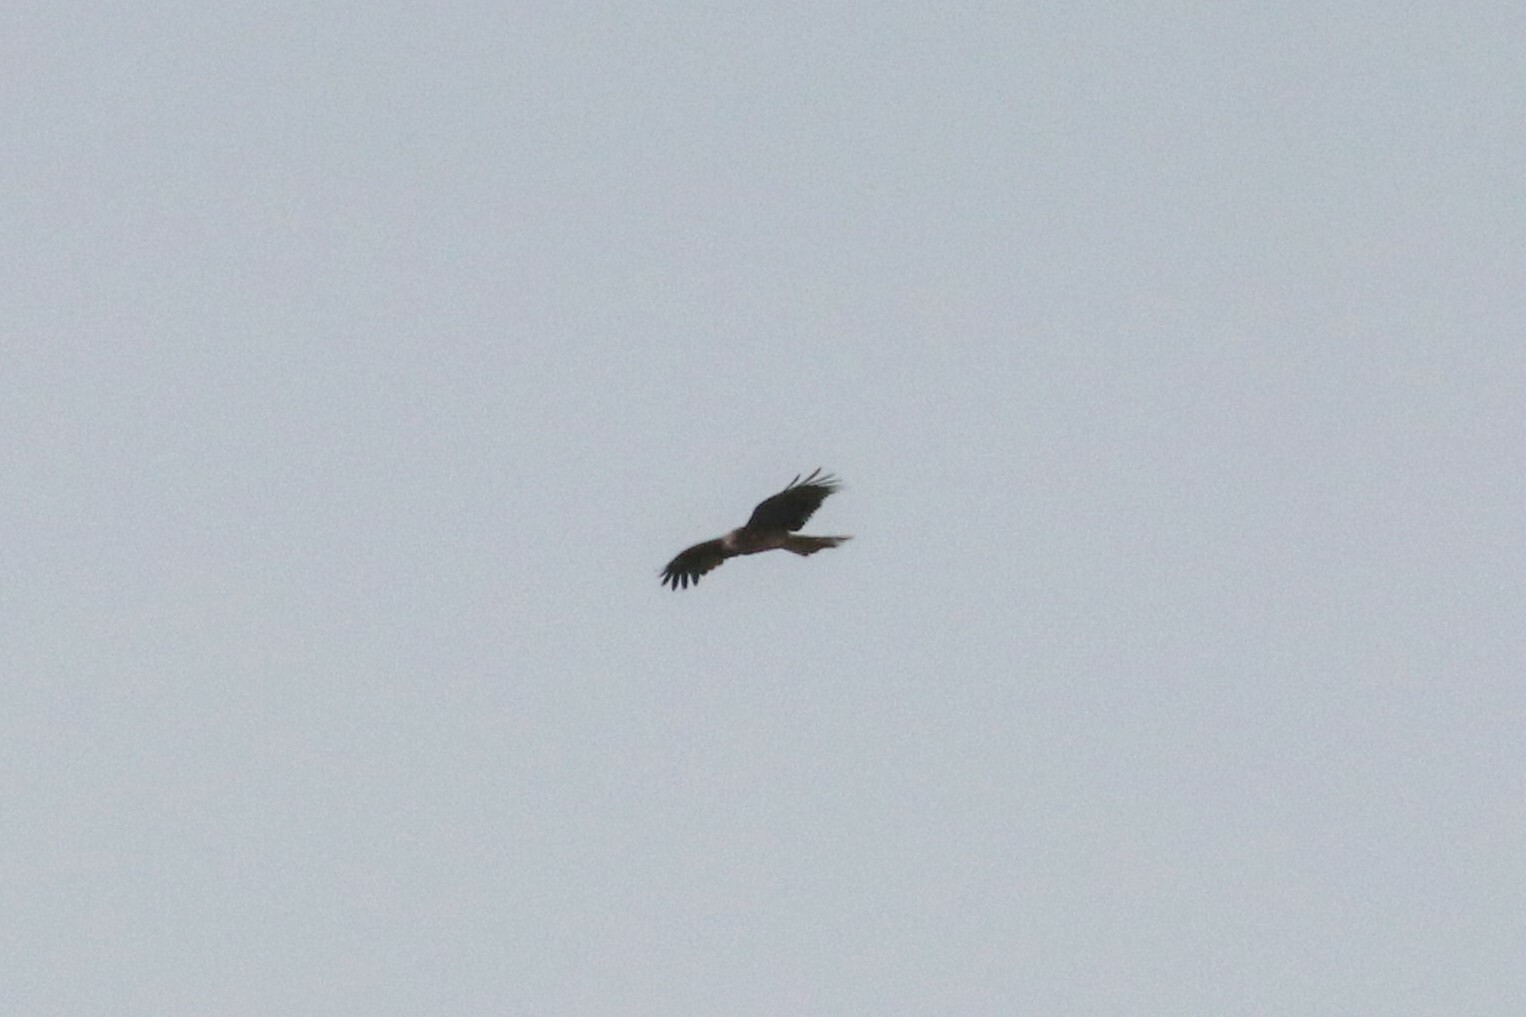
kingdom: Animalia
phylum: Chordata
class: Aves
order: Accipitriformes
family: Accipitridae
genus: Milvus
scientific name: Milvus migrans
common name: Black kite
